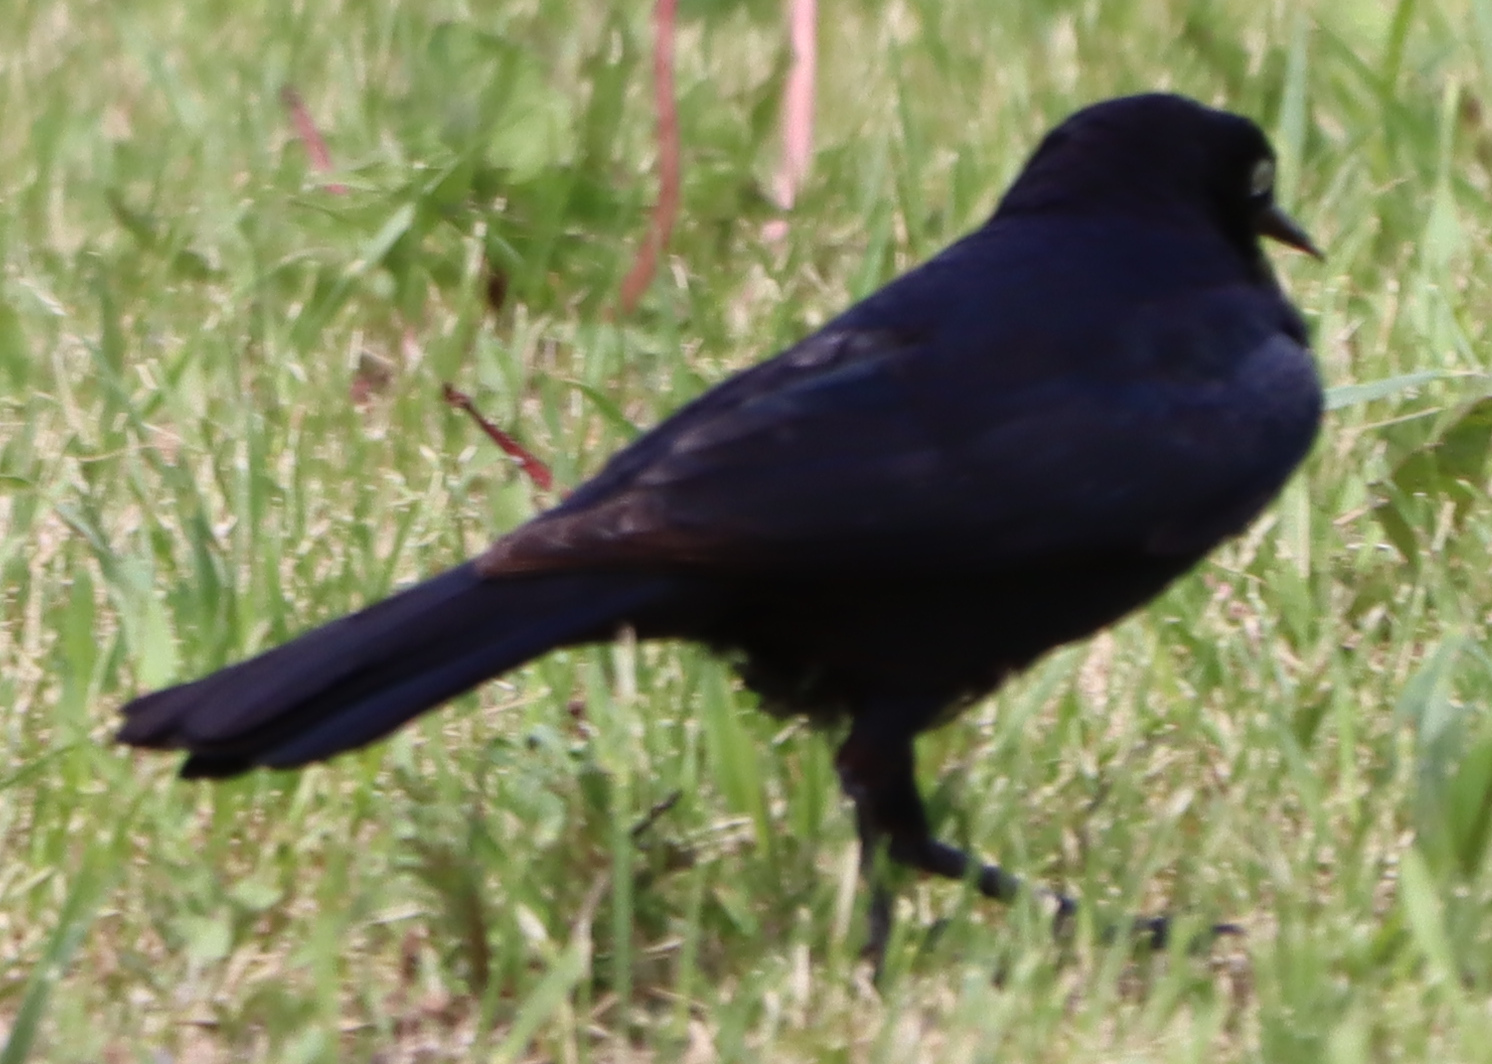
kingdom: Animalia
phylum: Chordata
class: Aves
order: Passeriformes
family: Icteridae
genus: Euphagus
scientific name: Euphagus cyanocephalus
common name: Brewer's blackbird
